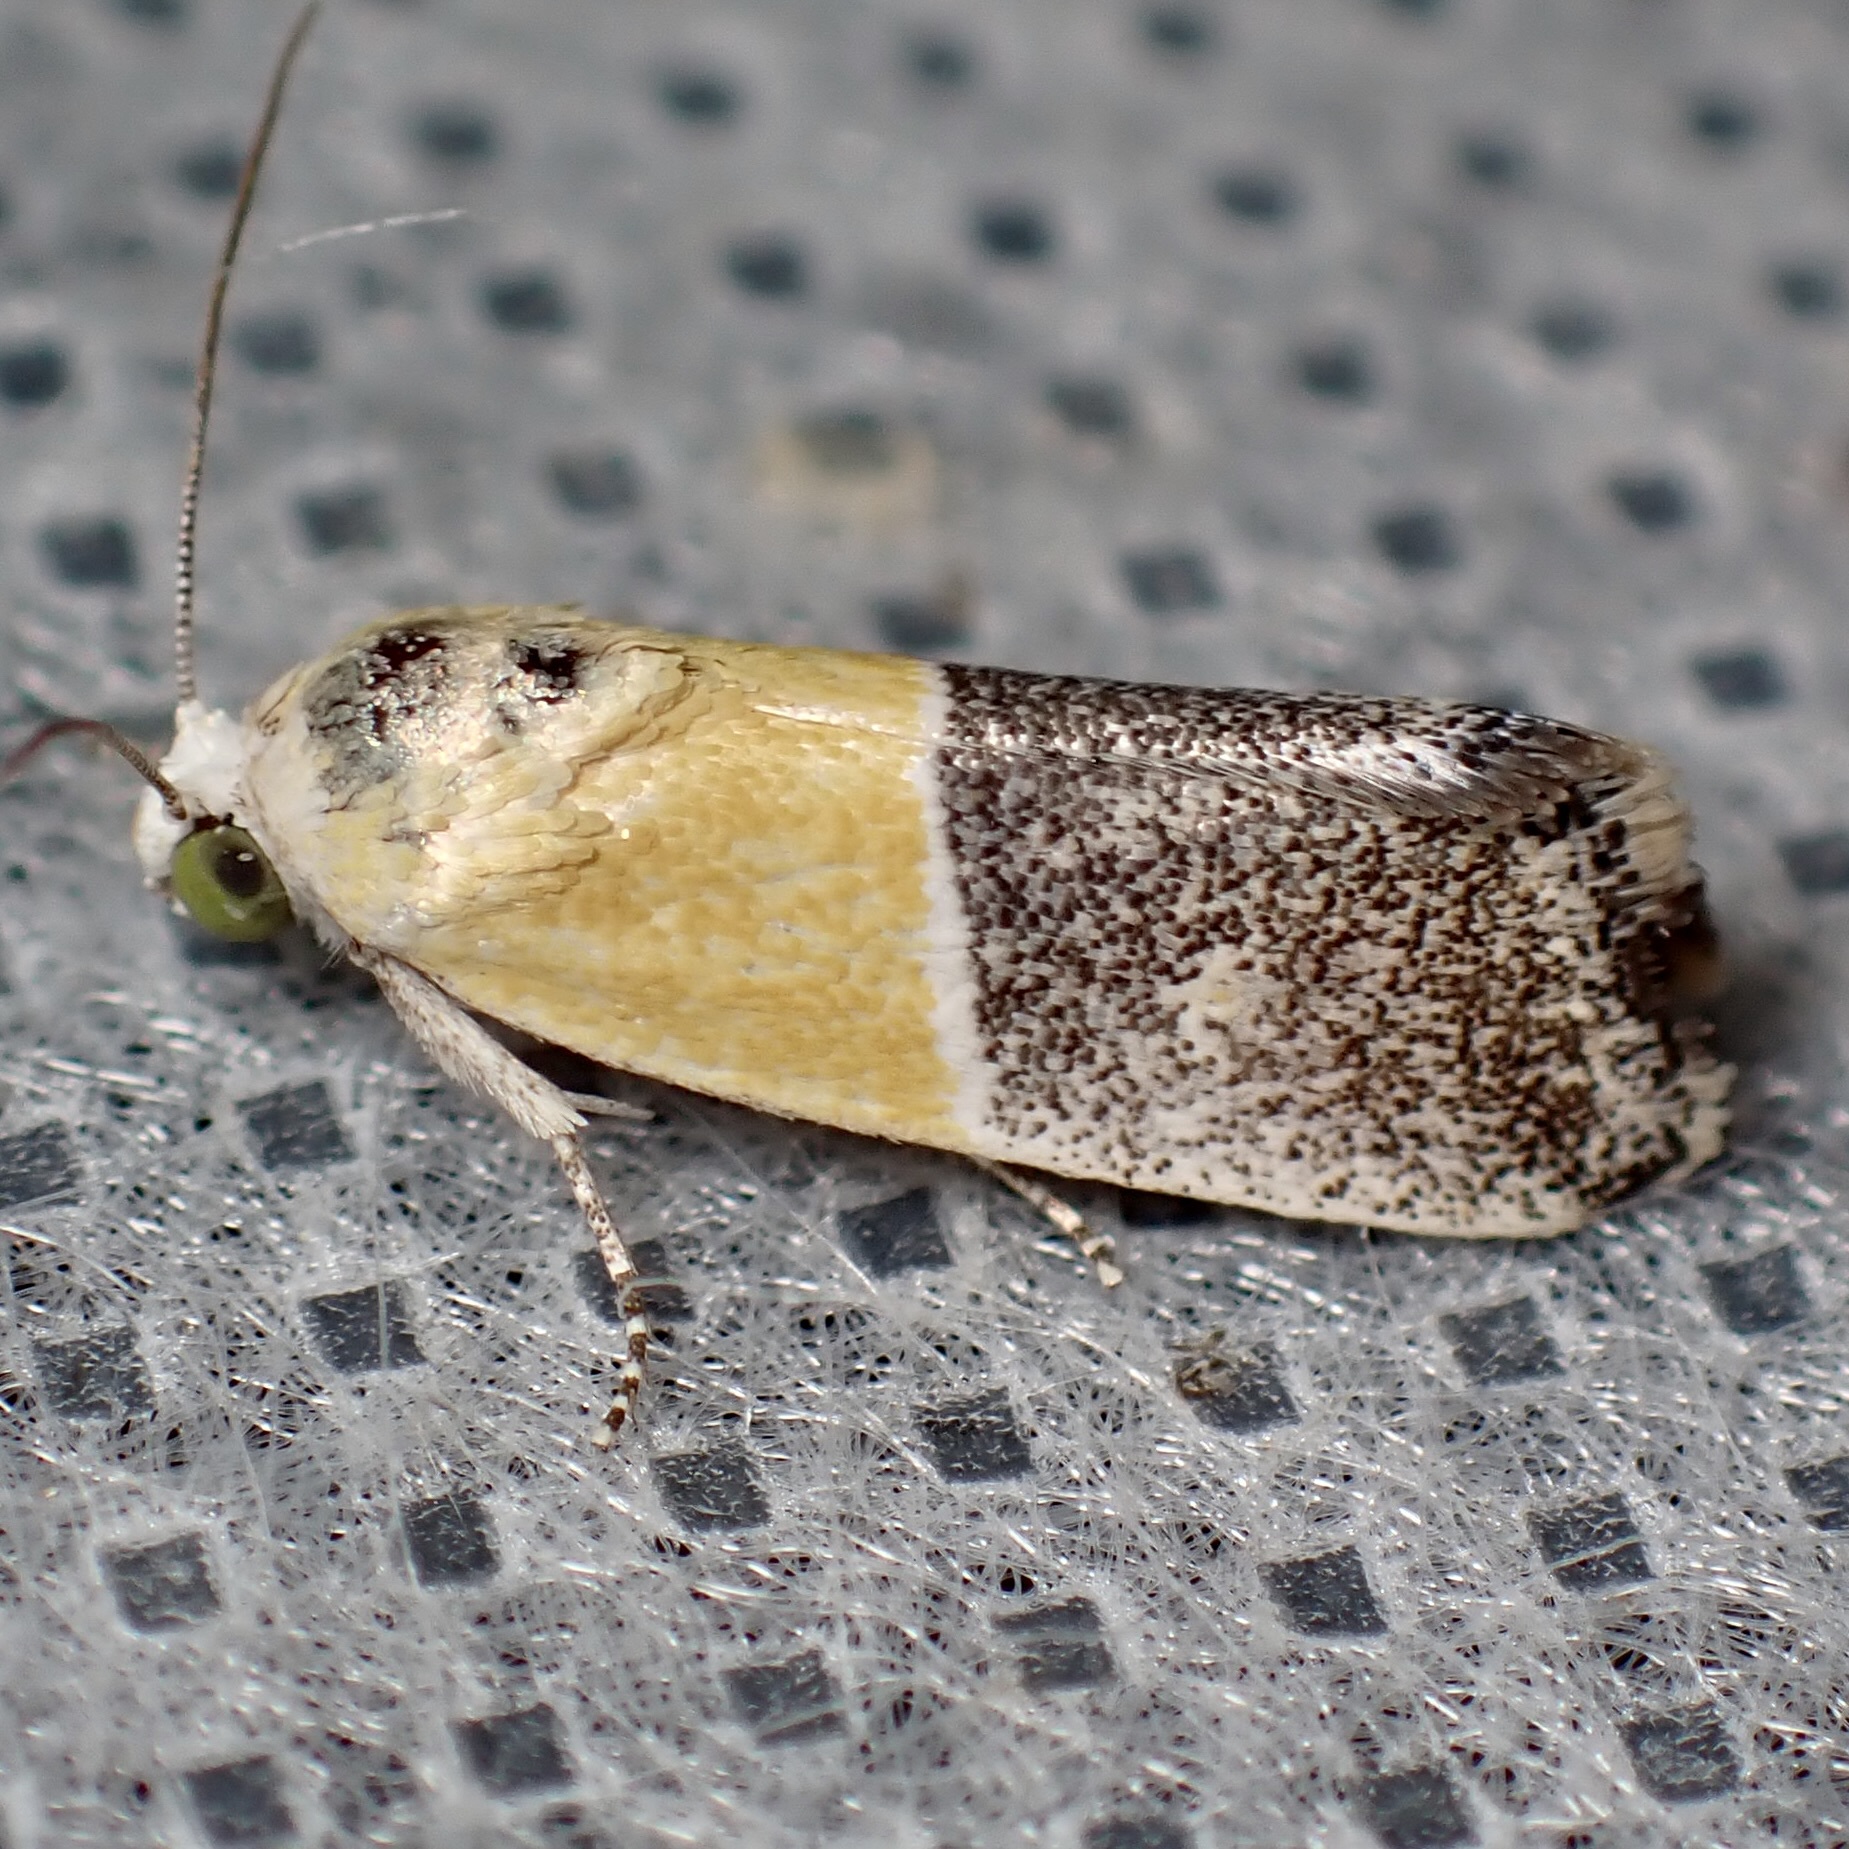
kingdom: Animalia
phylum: Arthropoda
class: Insecta
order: Lepidoptera
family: Noctuidae
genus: Acontia
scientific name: Acontia clausula
